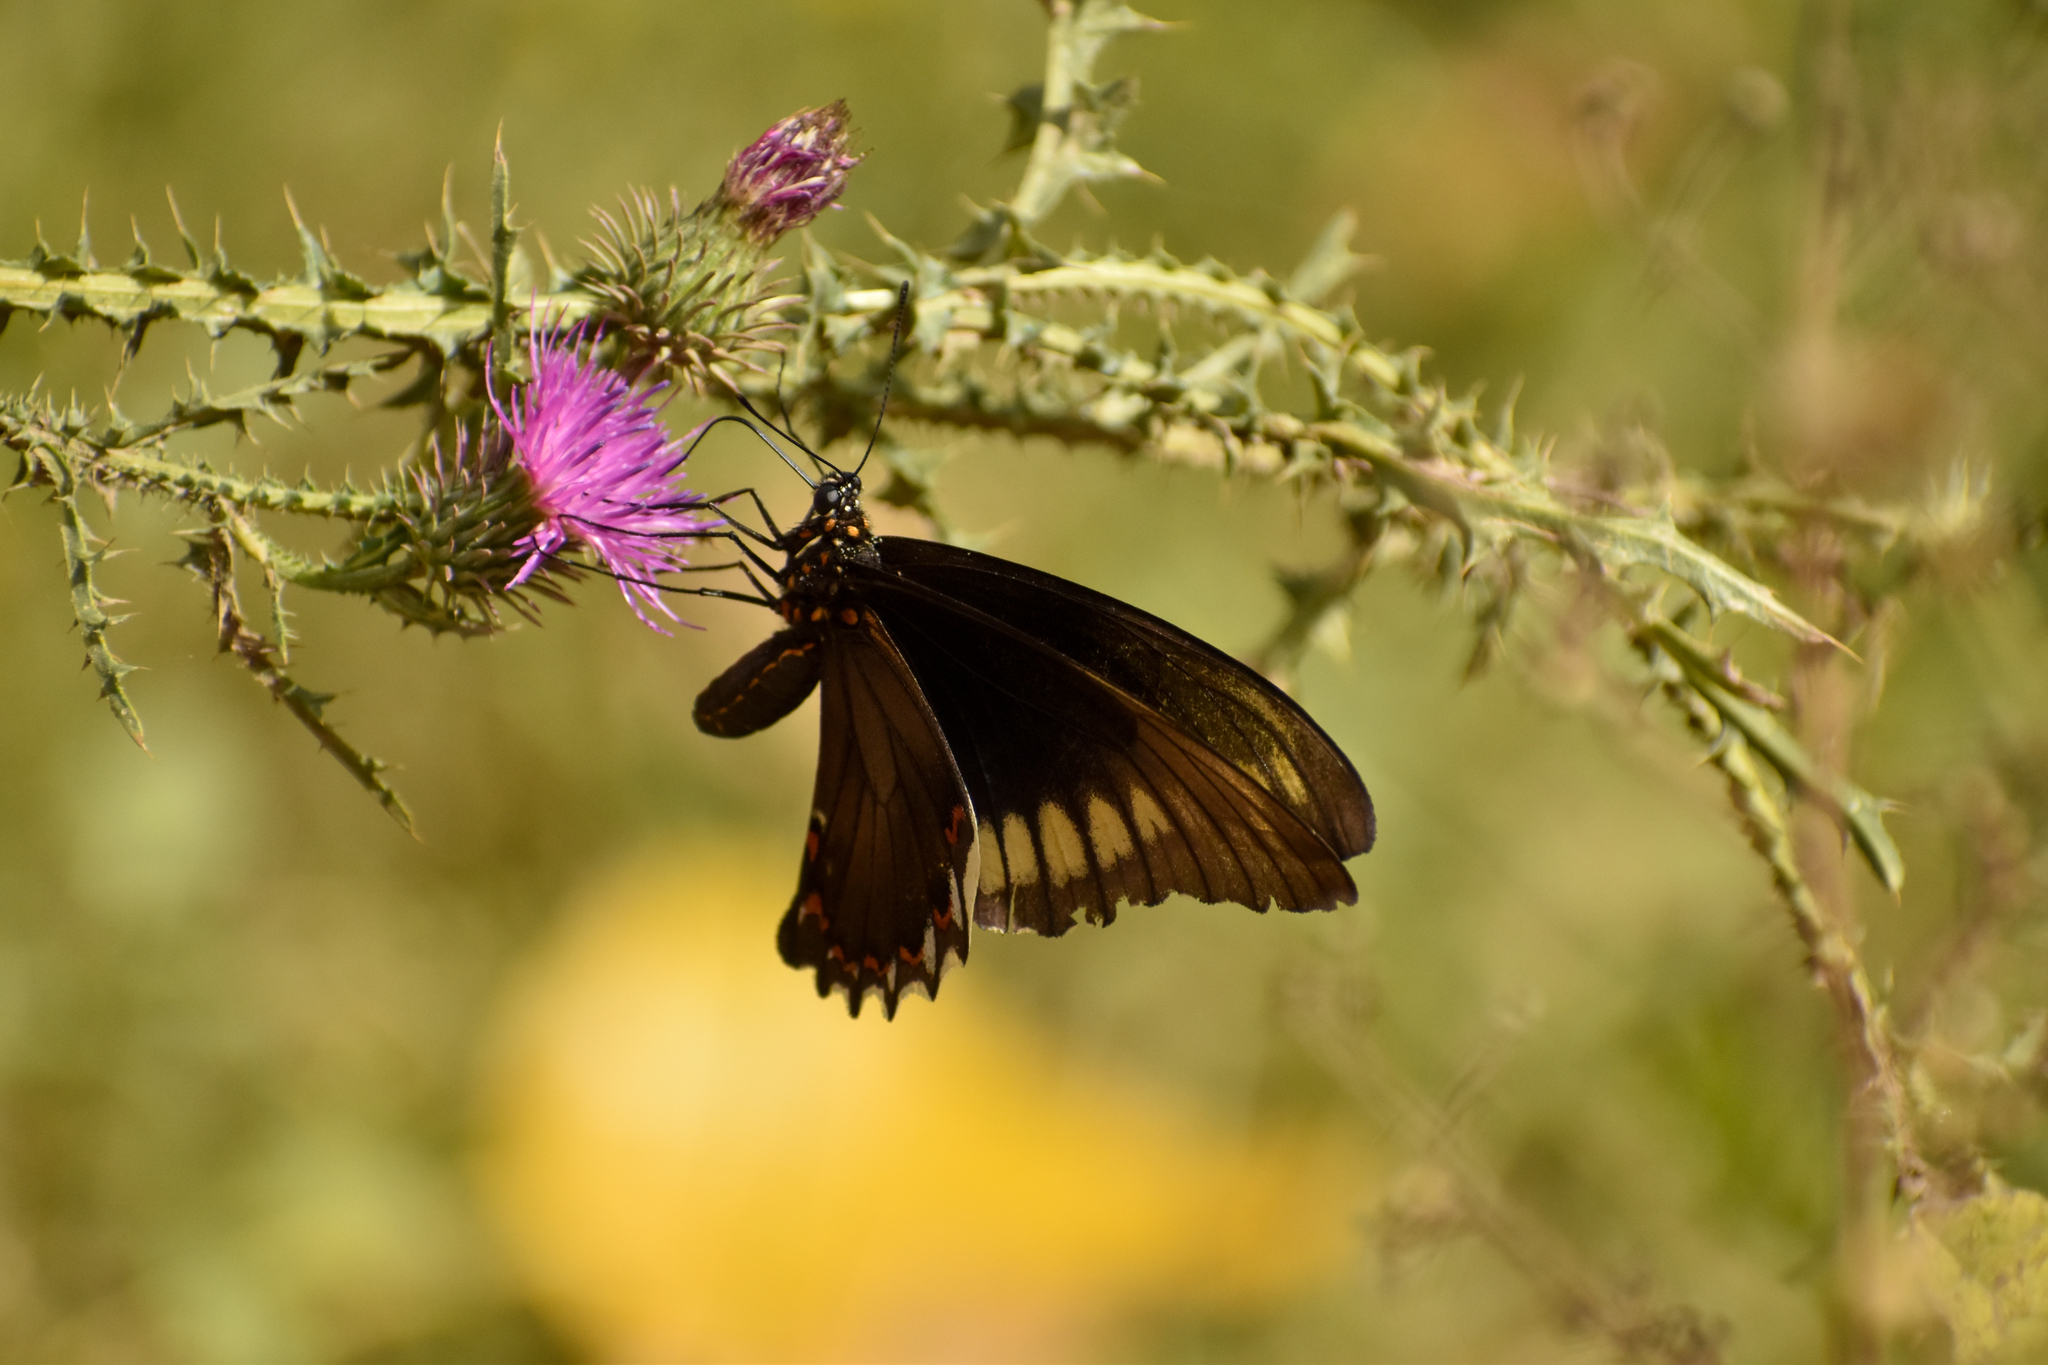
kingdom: Animalia
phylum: Arthropoda
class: Insecta
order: Lepidoptera
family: Papilionidae
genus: Battus
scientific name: Battus polydamas
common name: Polydamas swallowtail
